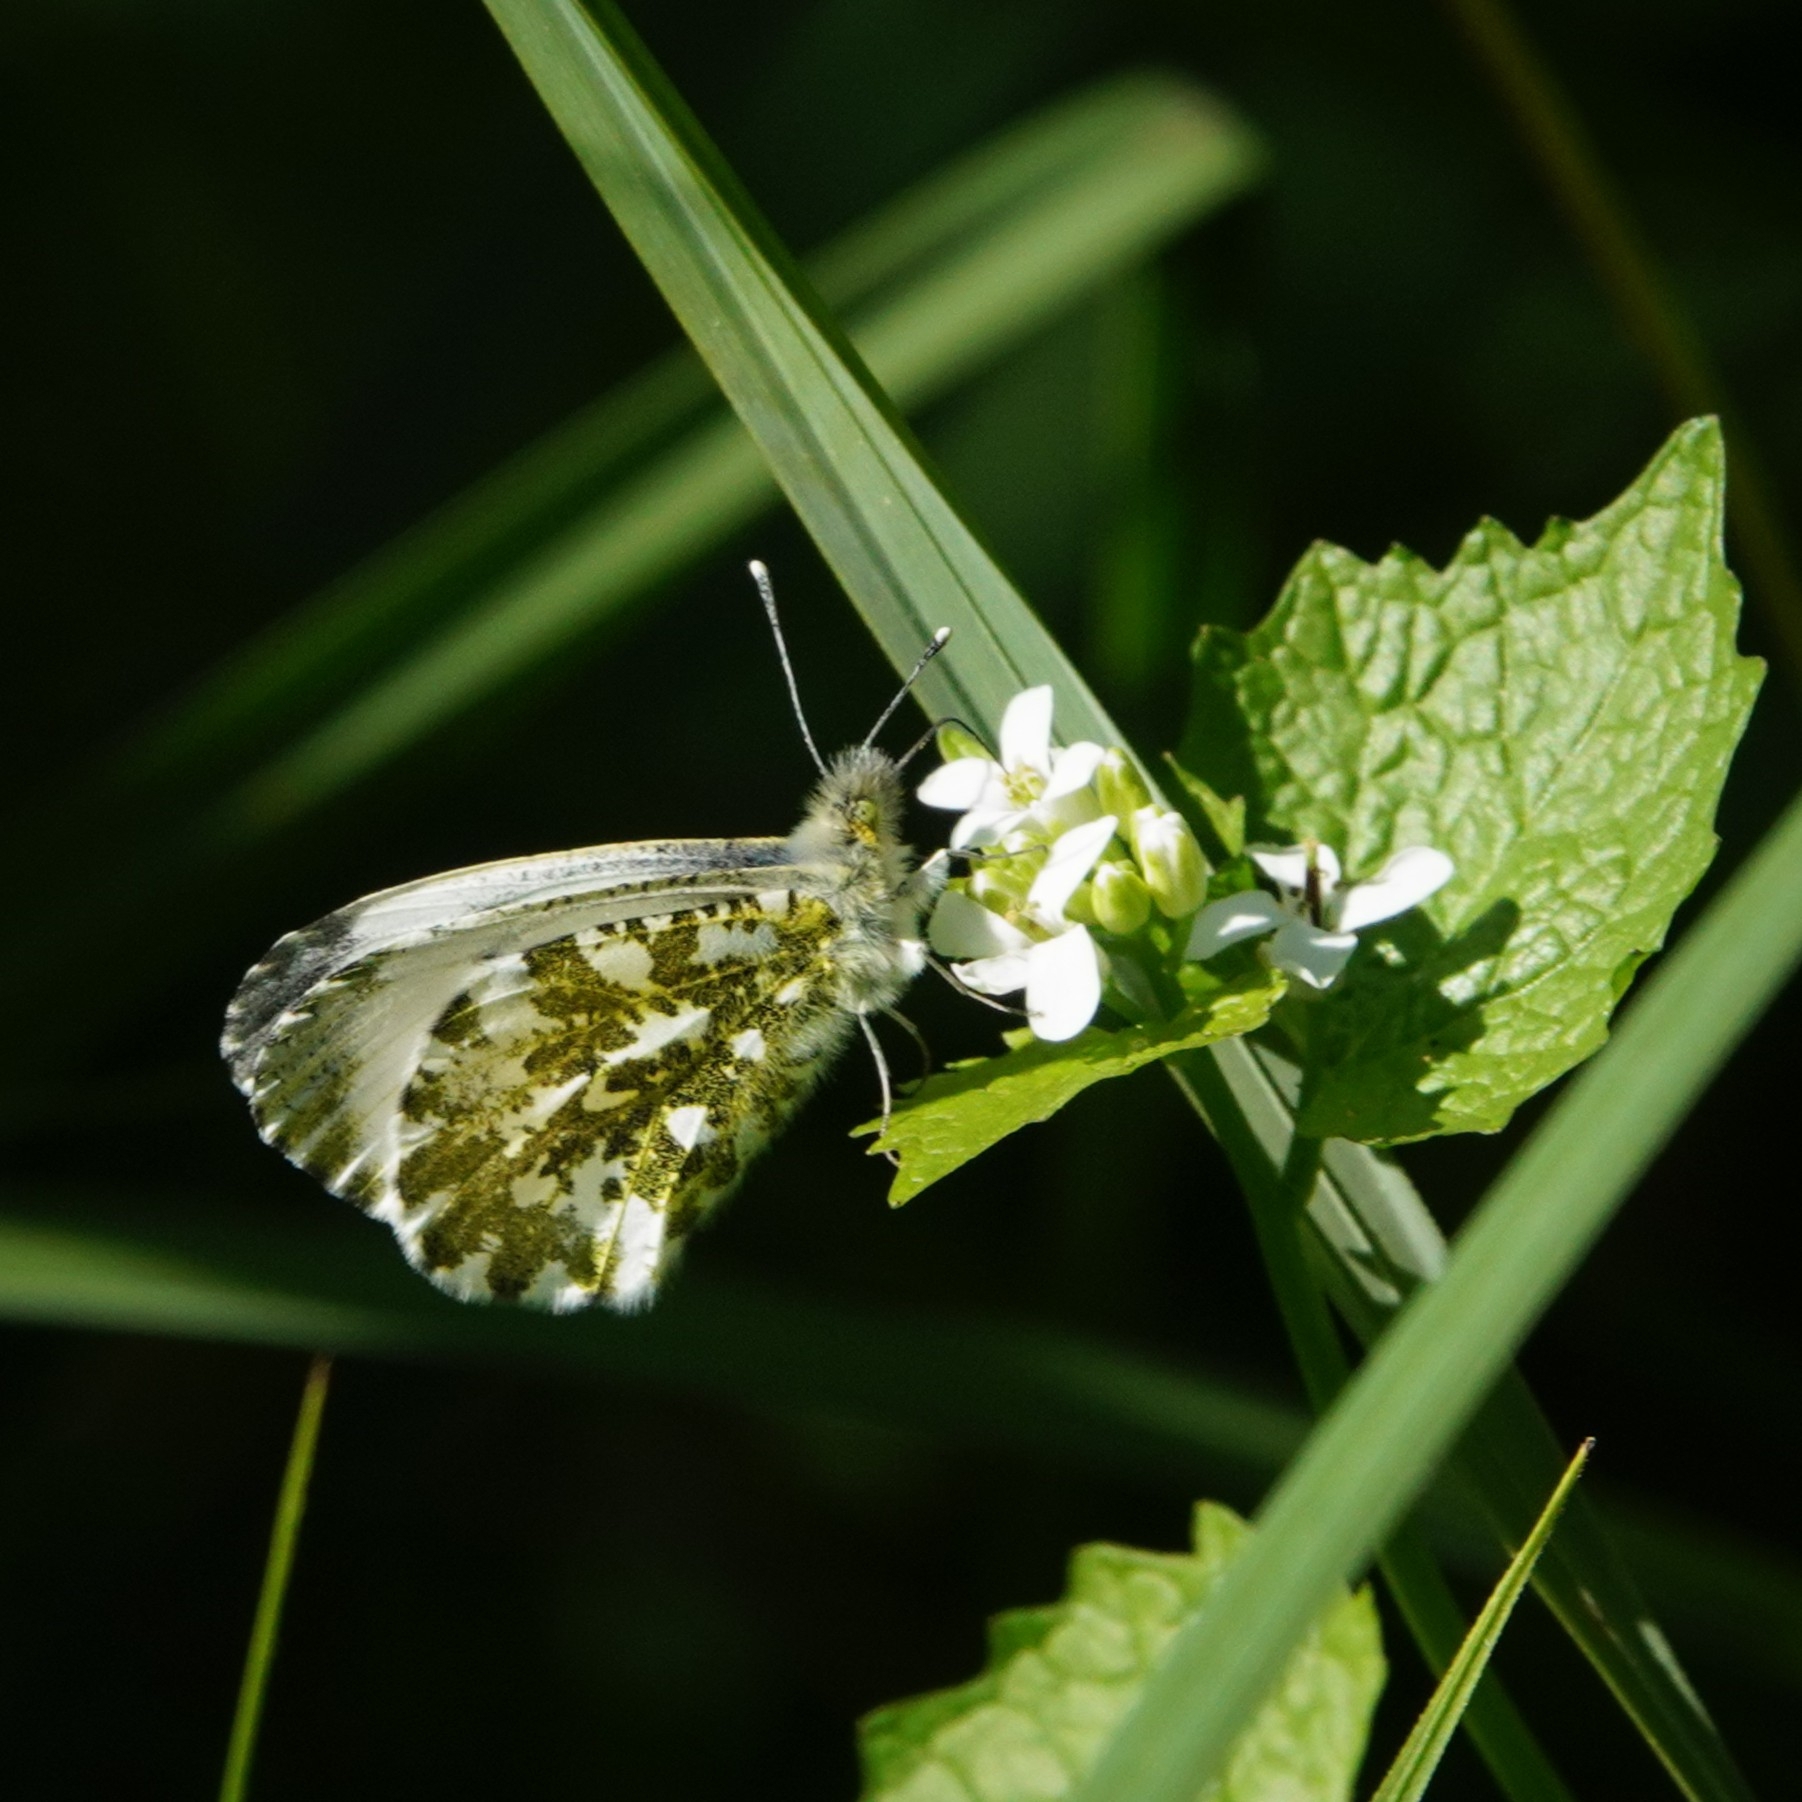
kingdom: Animalia
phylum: Arthropoda
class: Insecta
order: Lepidoptera
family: Pieridae
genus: Anthocharis
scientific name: Anthocharis cardamines
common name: Orange-tip
